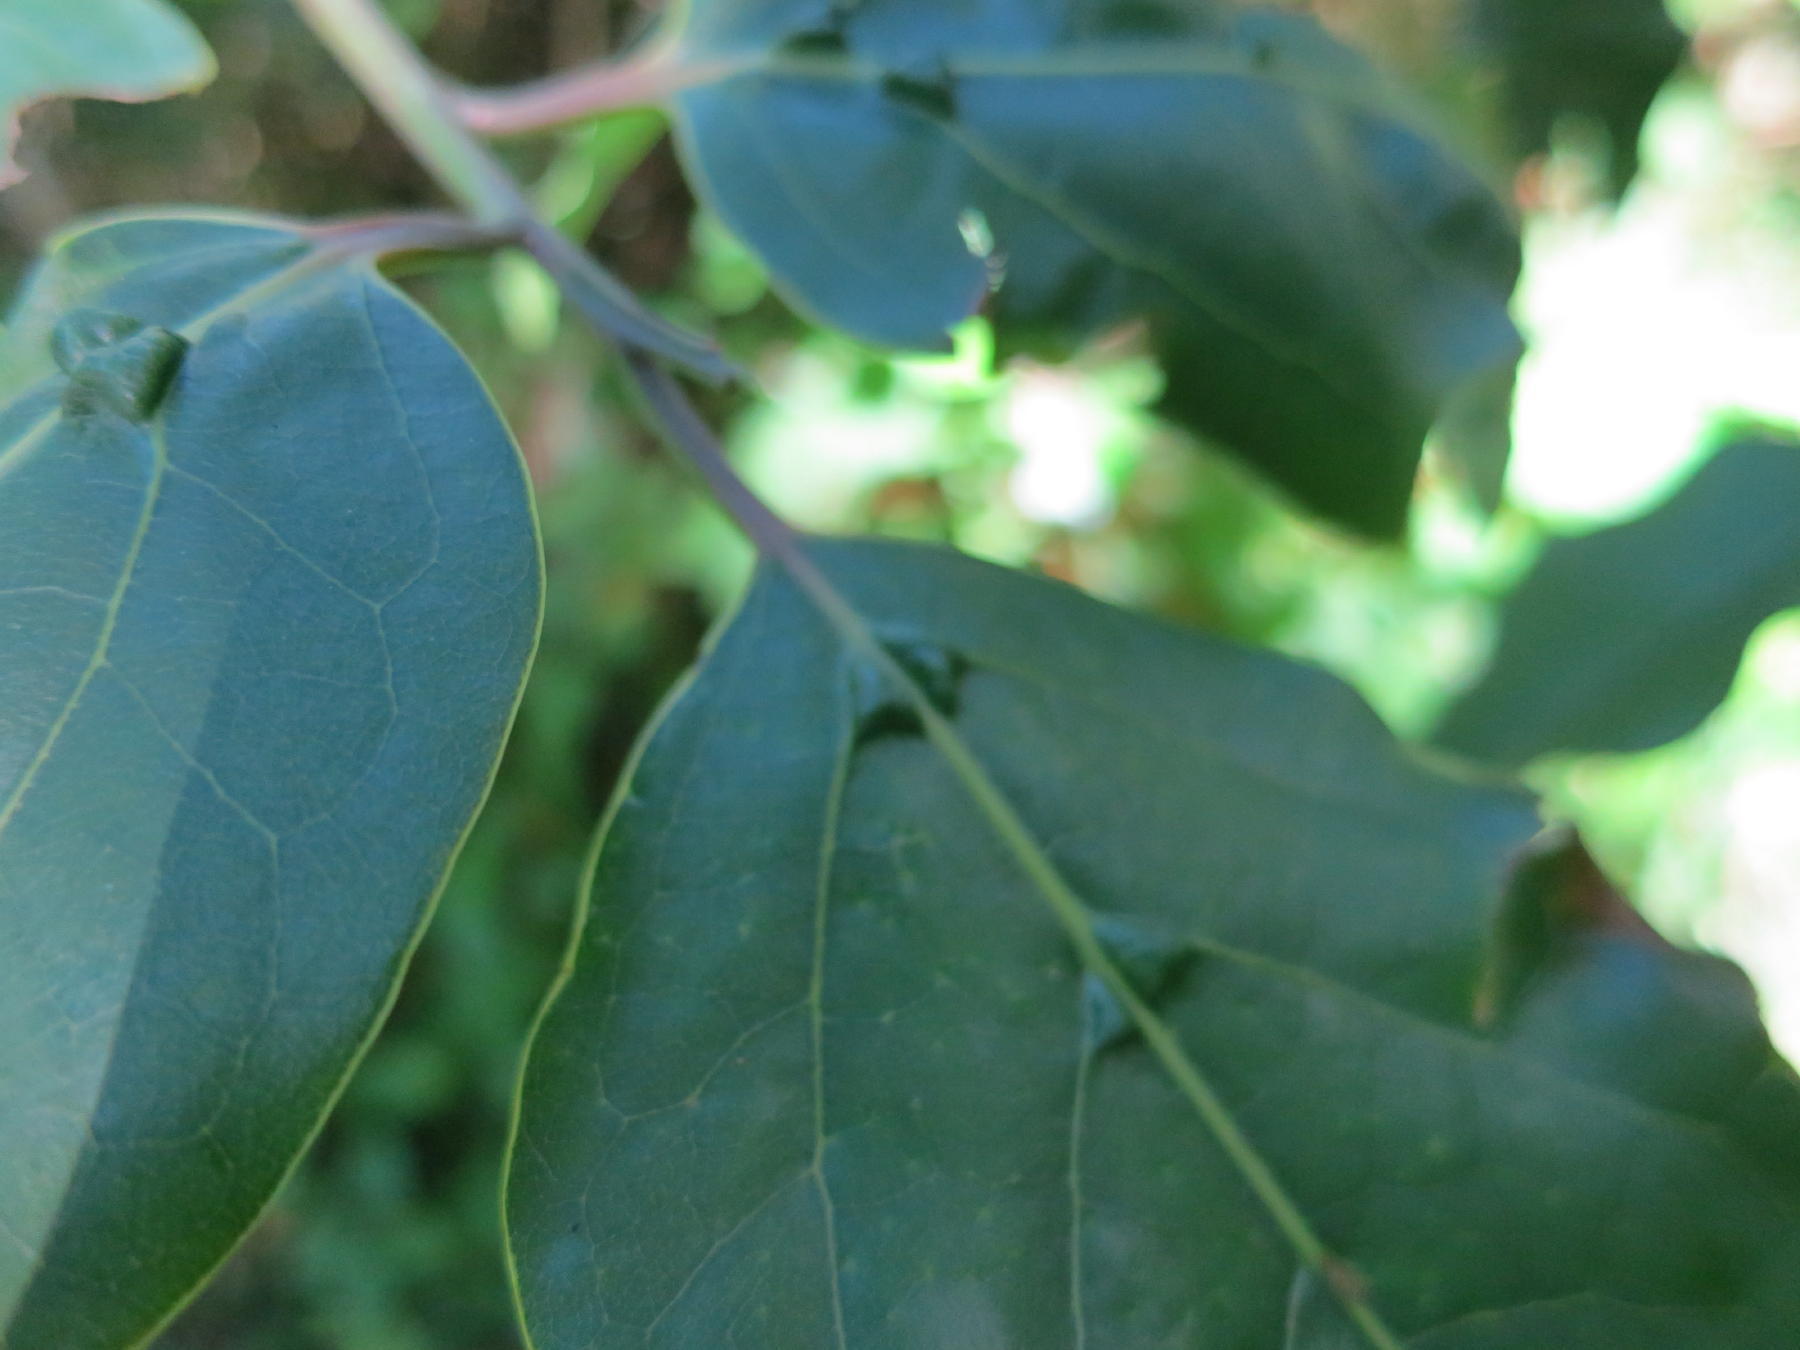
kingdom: Plantae
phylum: Tracheophyta
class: Magnoliopsida
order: Laurales
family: Lauraceae
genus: Ocotea
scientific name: Ocotea bullata
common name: Black stinkwood
